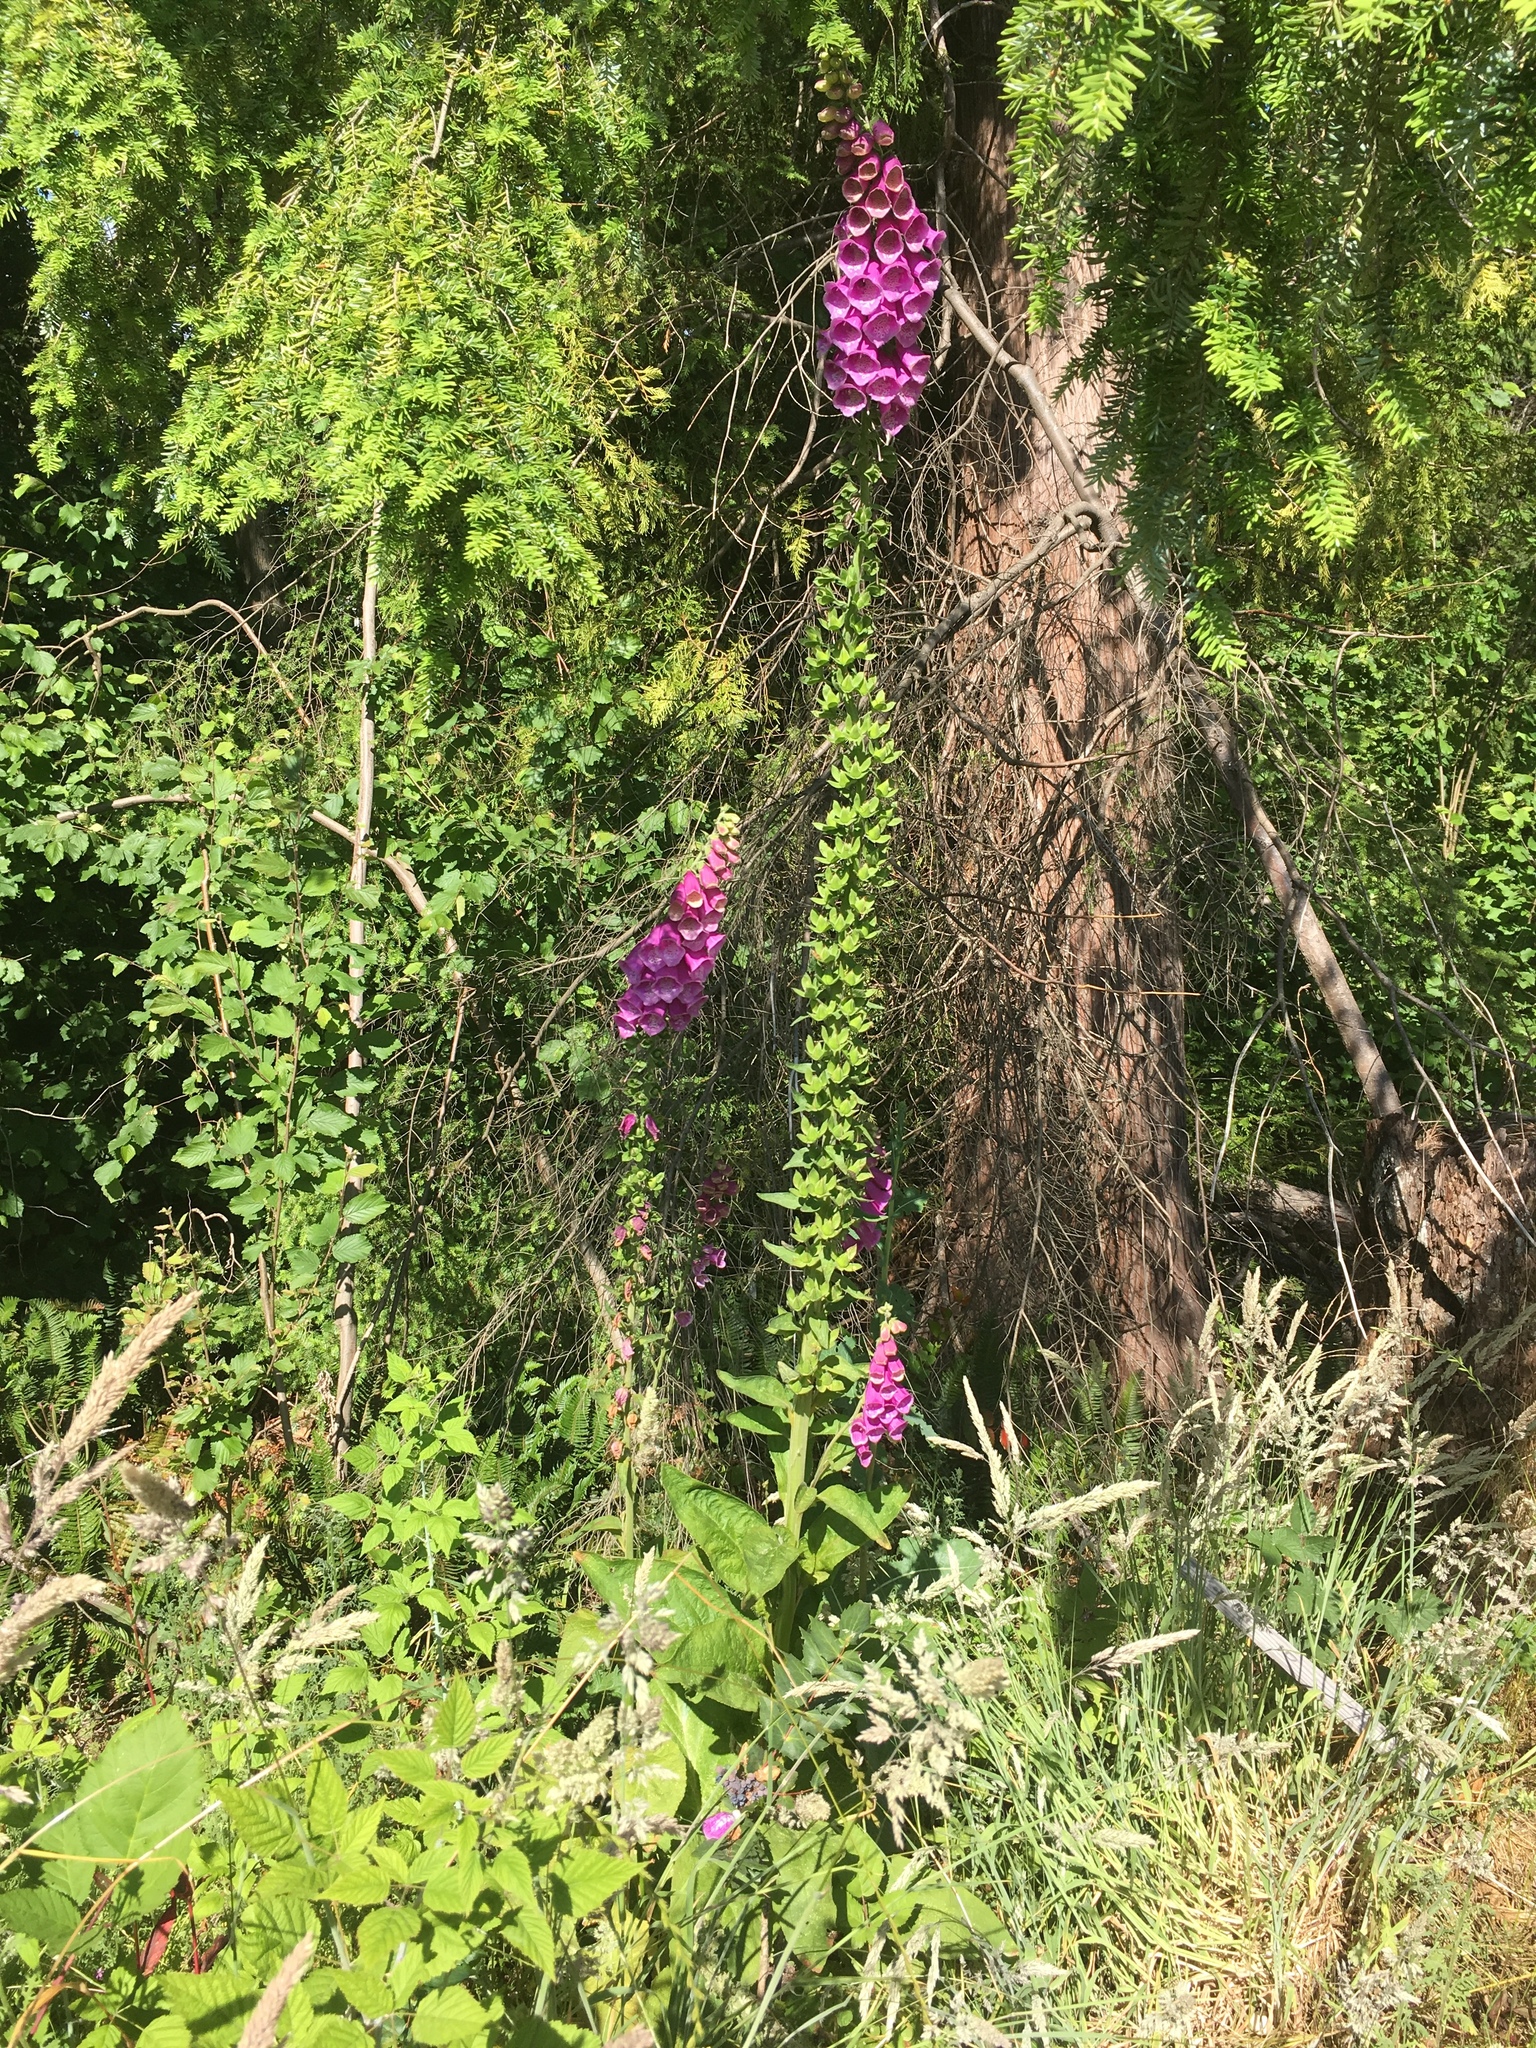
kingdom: Plantae
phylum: Tracheophyta
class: Magnoliopsida
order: Lamiales
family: Plantaginaceae
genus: Digitalis
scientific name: Digitalis purpurea
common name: Foxglove
